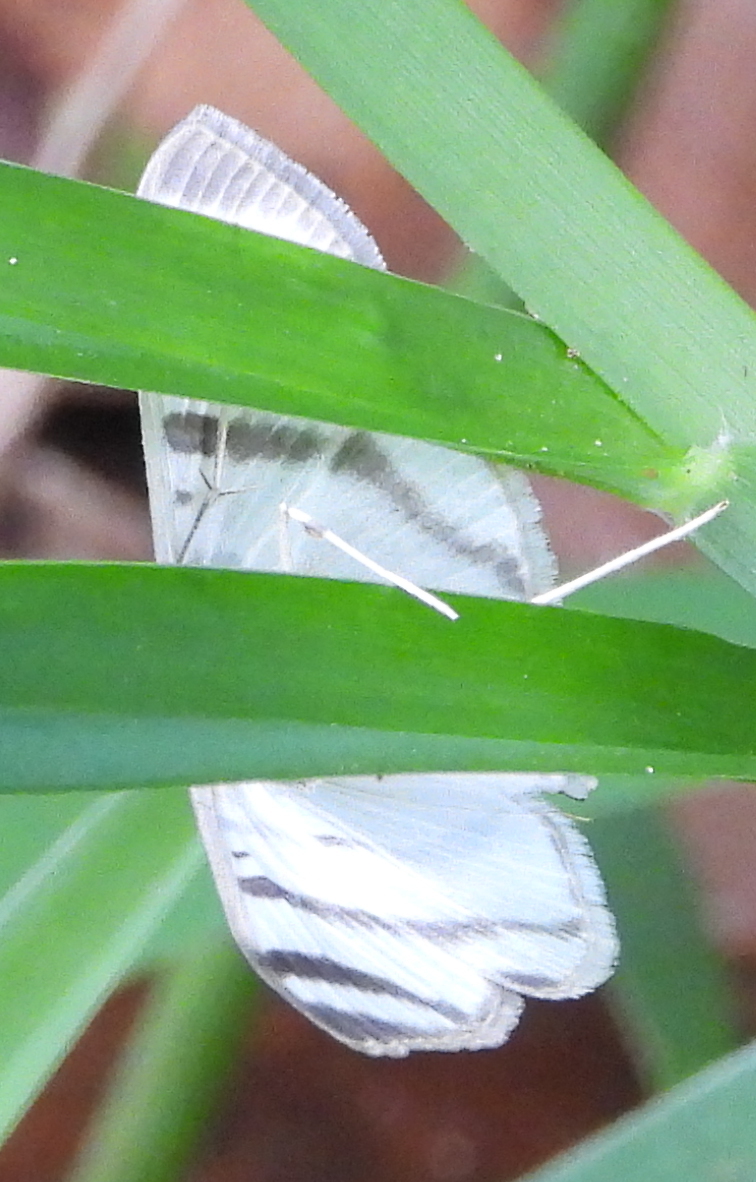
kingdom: Animalia
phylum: Arthropoda
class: Insecta
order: Lepidoptera
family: Crambidae
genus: Zebronia
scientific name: Zebronia phenice
